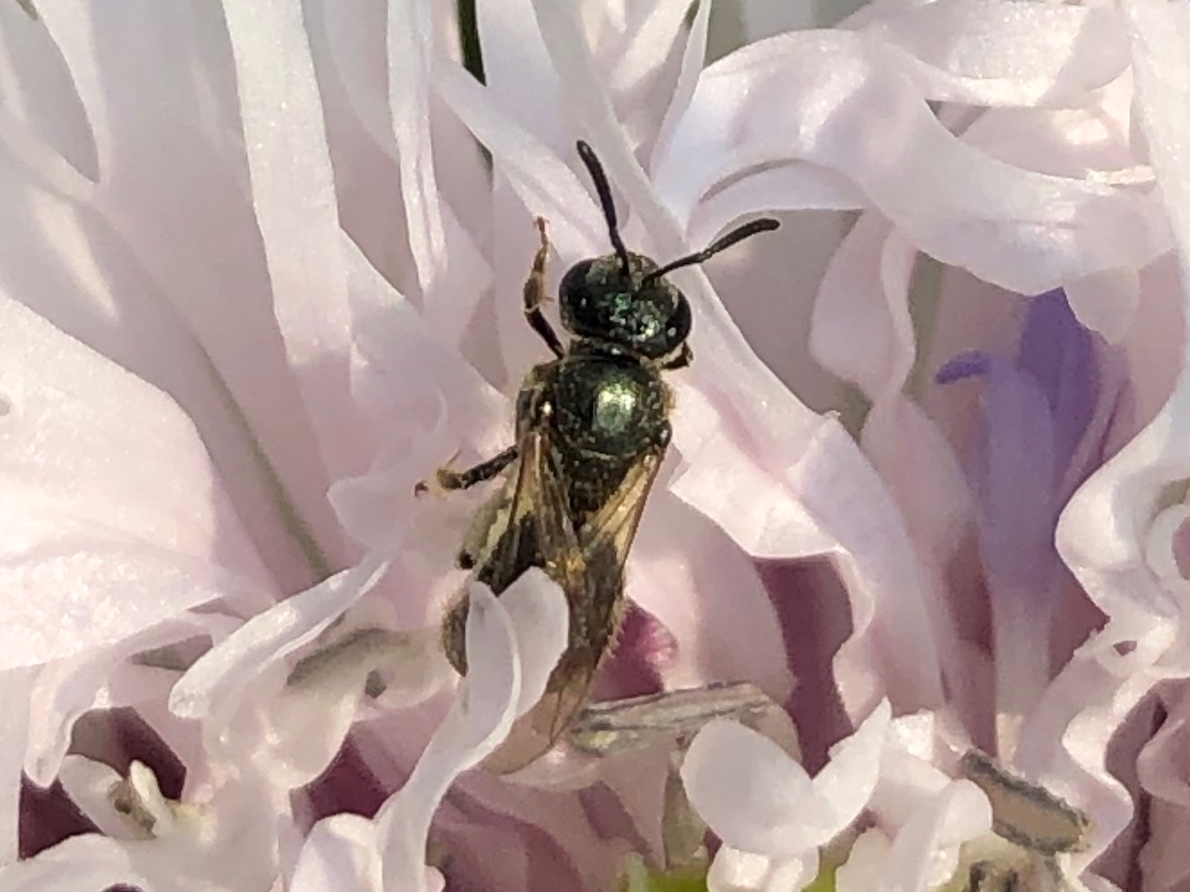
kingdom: Animalia
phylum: Arthropoda
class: Insecta
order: Hymenoptera
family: Halictidae
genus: Dialictus
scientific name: Dialictus
